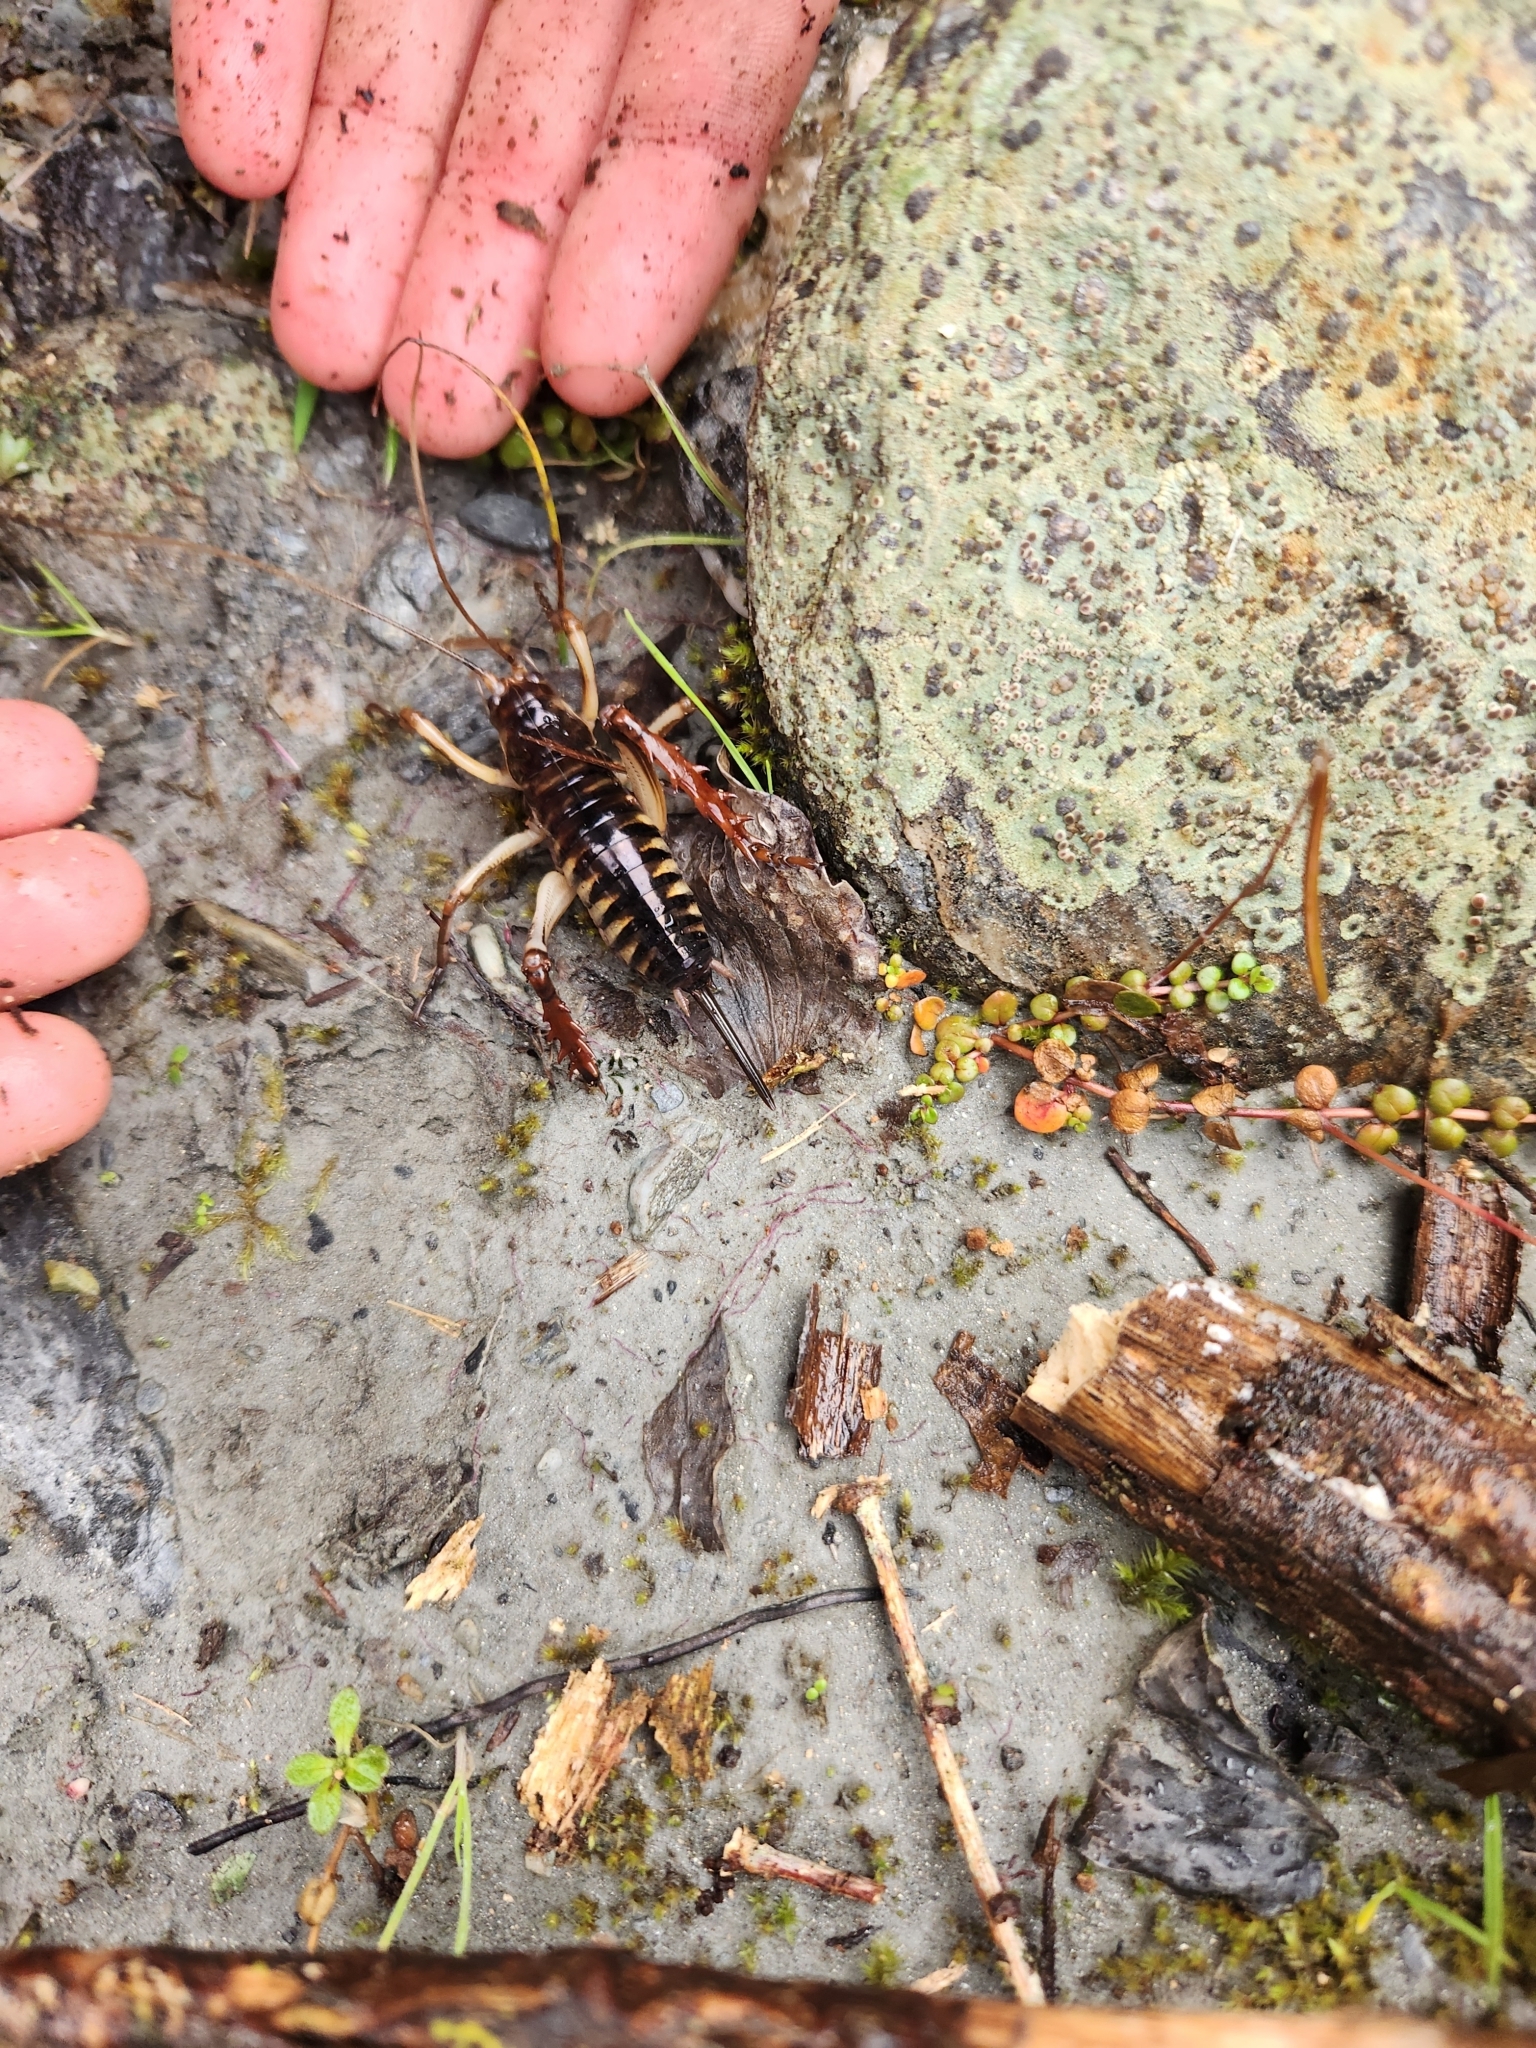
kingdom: Animalia
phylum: Arthropoda
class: Insecta
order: Orthoptera
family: Anostostomatidae
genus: Hemideina
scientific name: Hemideina crassidens
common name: Wellington tree weta
